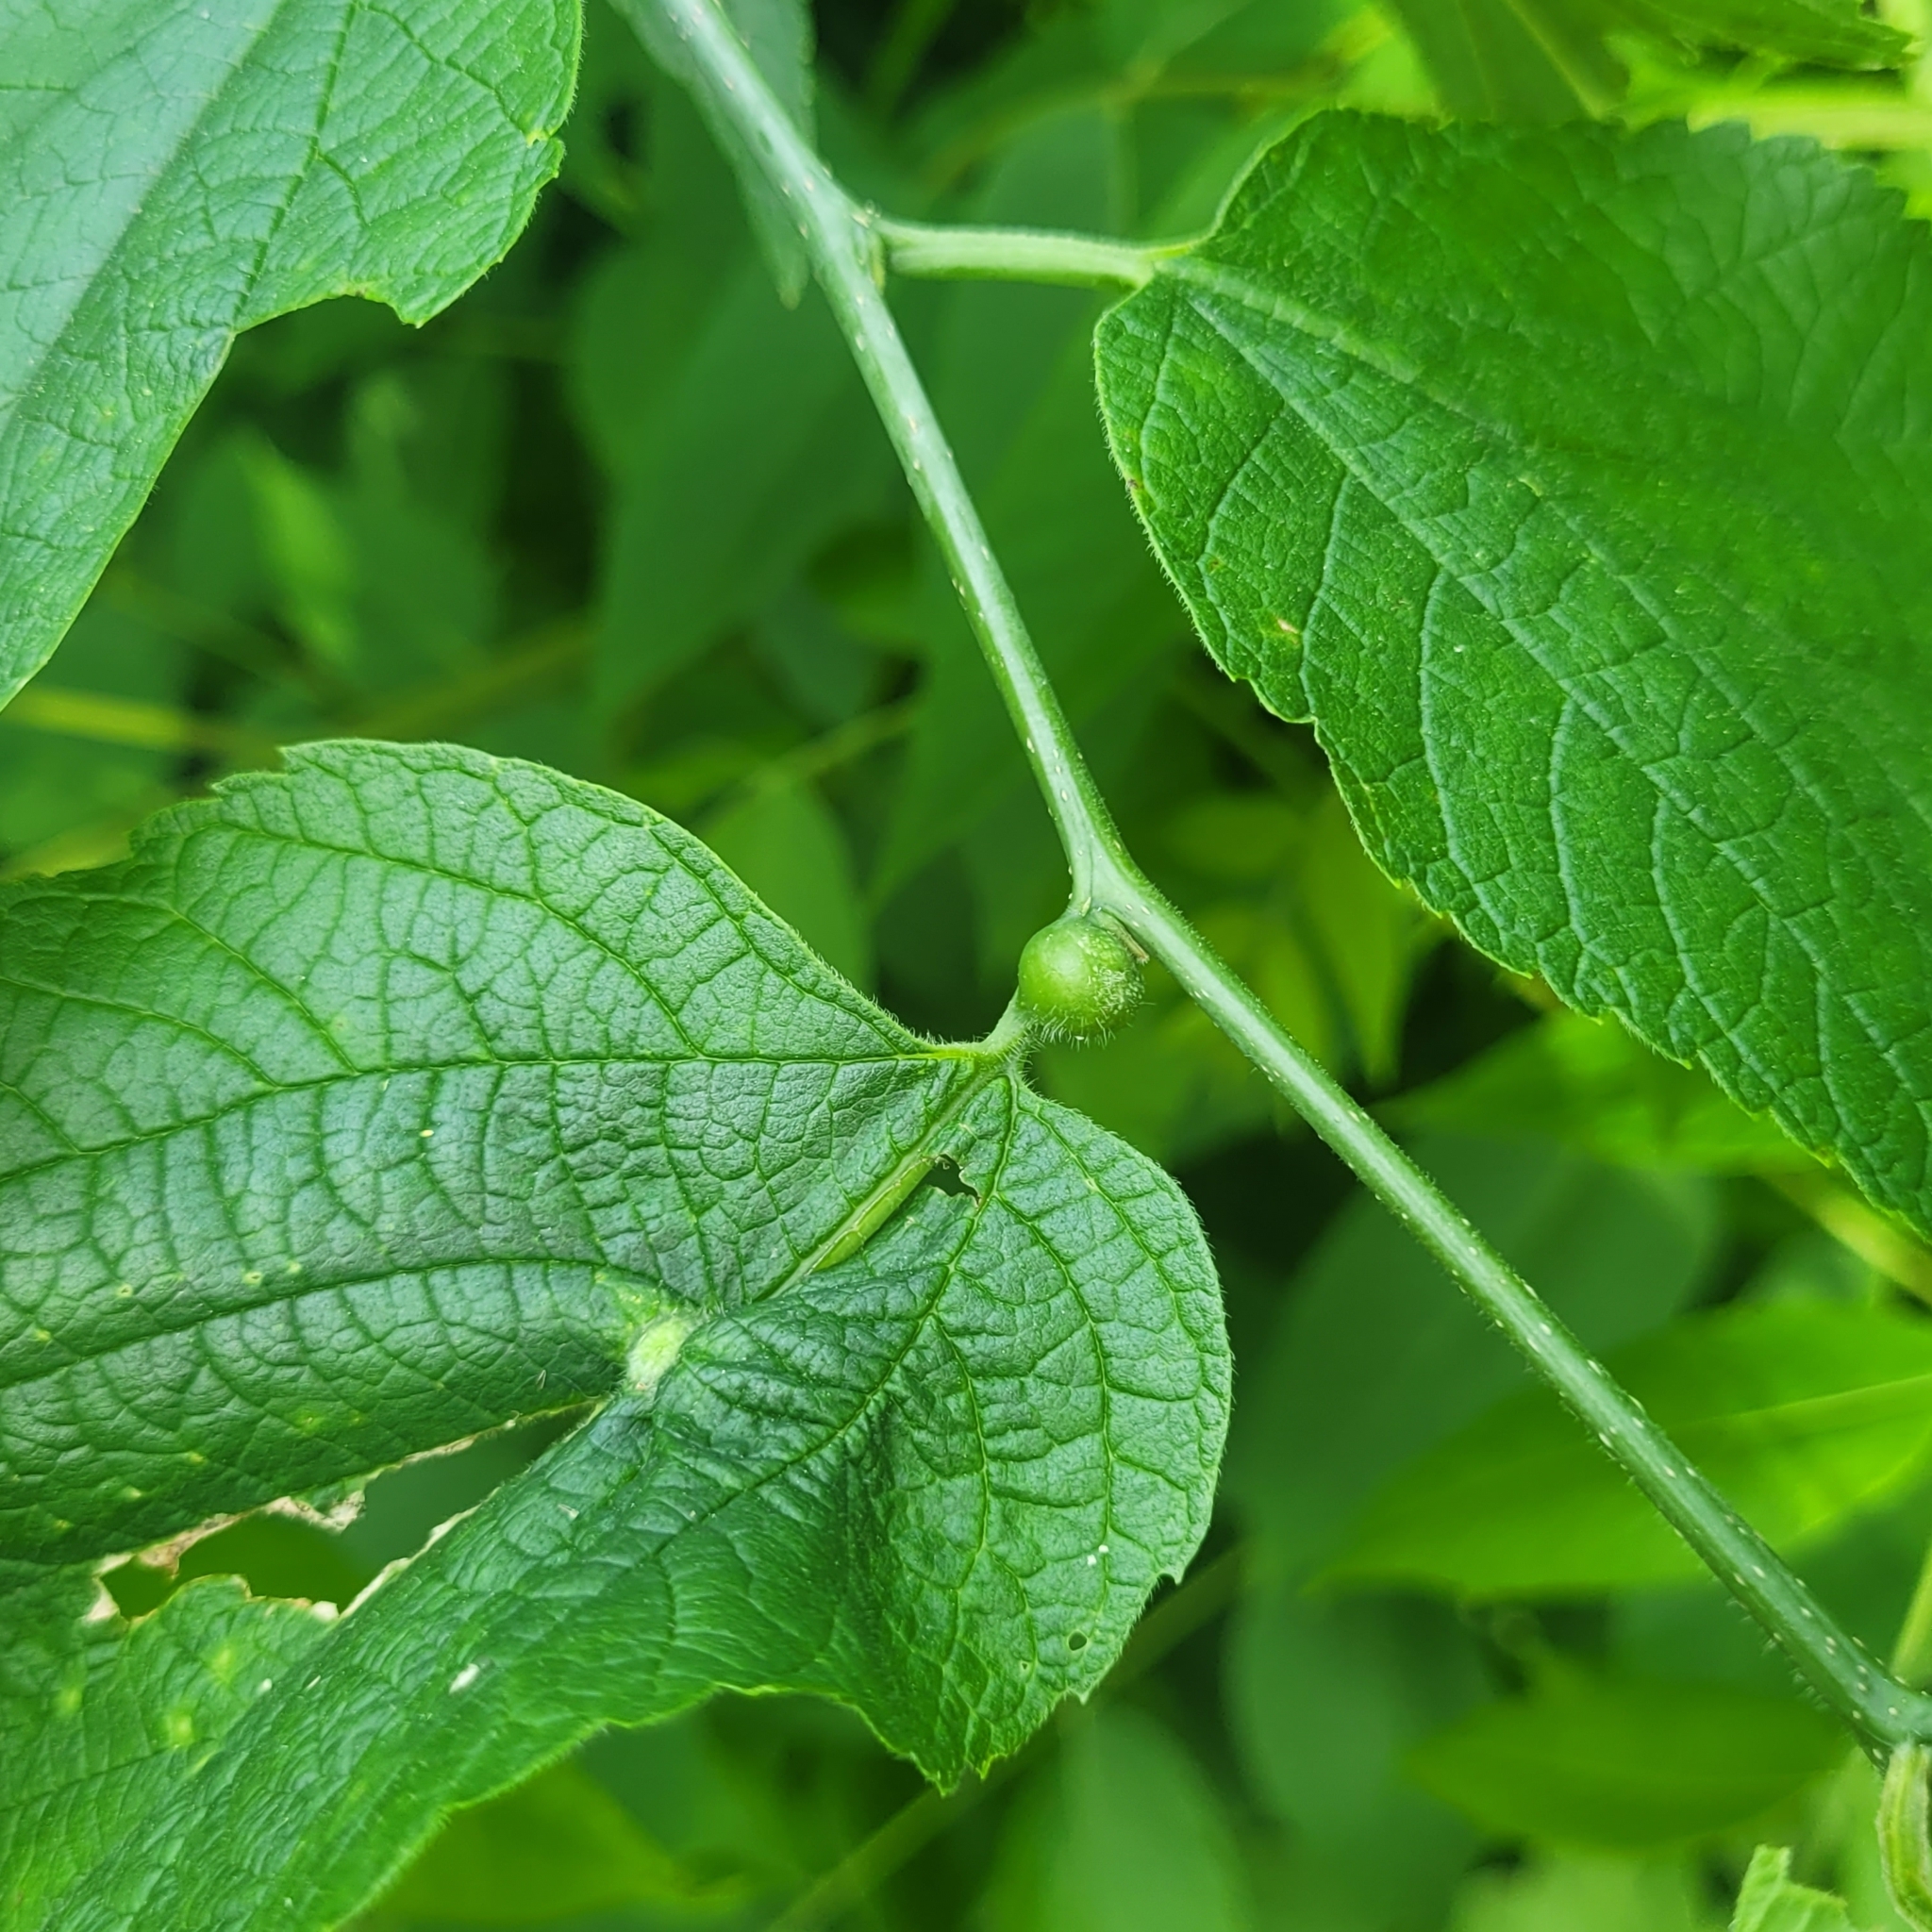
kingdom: Animalia
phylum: Arthropoda
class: Insecta
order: Diptera
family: Cecidomyiidae
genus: Celticecis
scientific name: Celticecis connata
